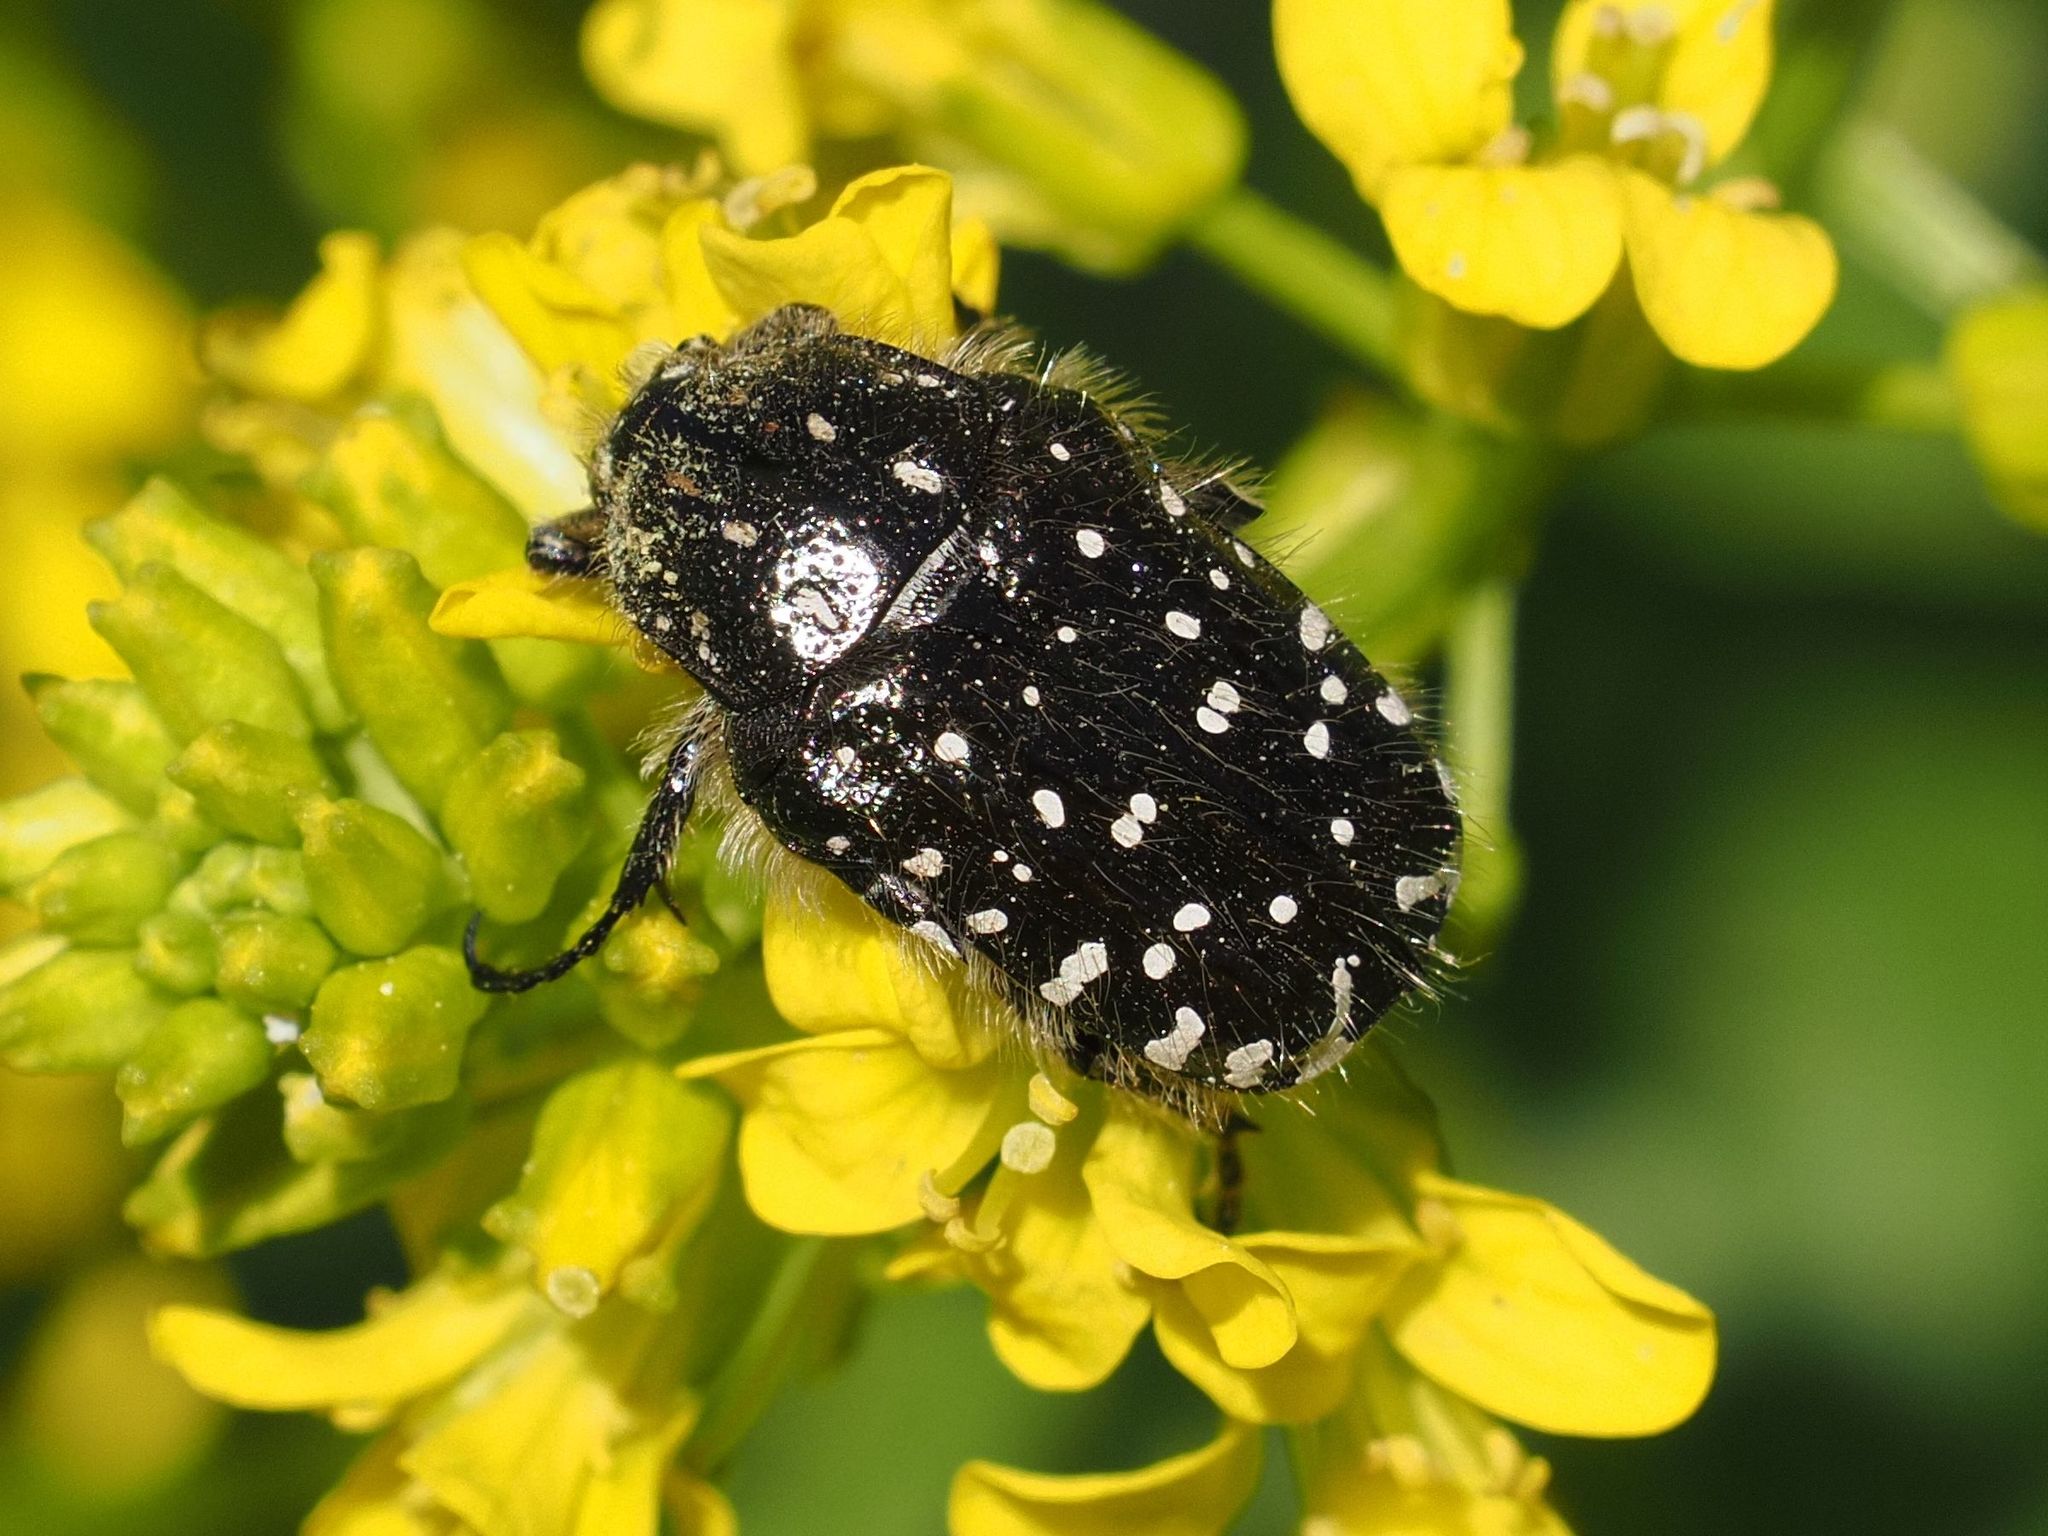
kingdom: Animalia
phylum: Arthropoda
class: Insecta
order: Coleoptera
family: Scarabaeidae
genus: Oxythyrea
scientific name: Oxythyrea funesta
